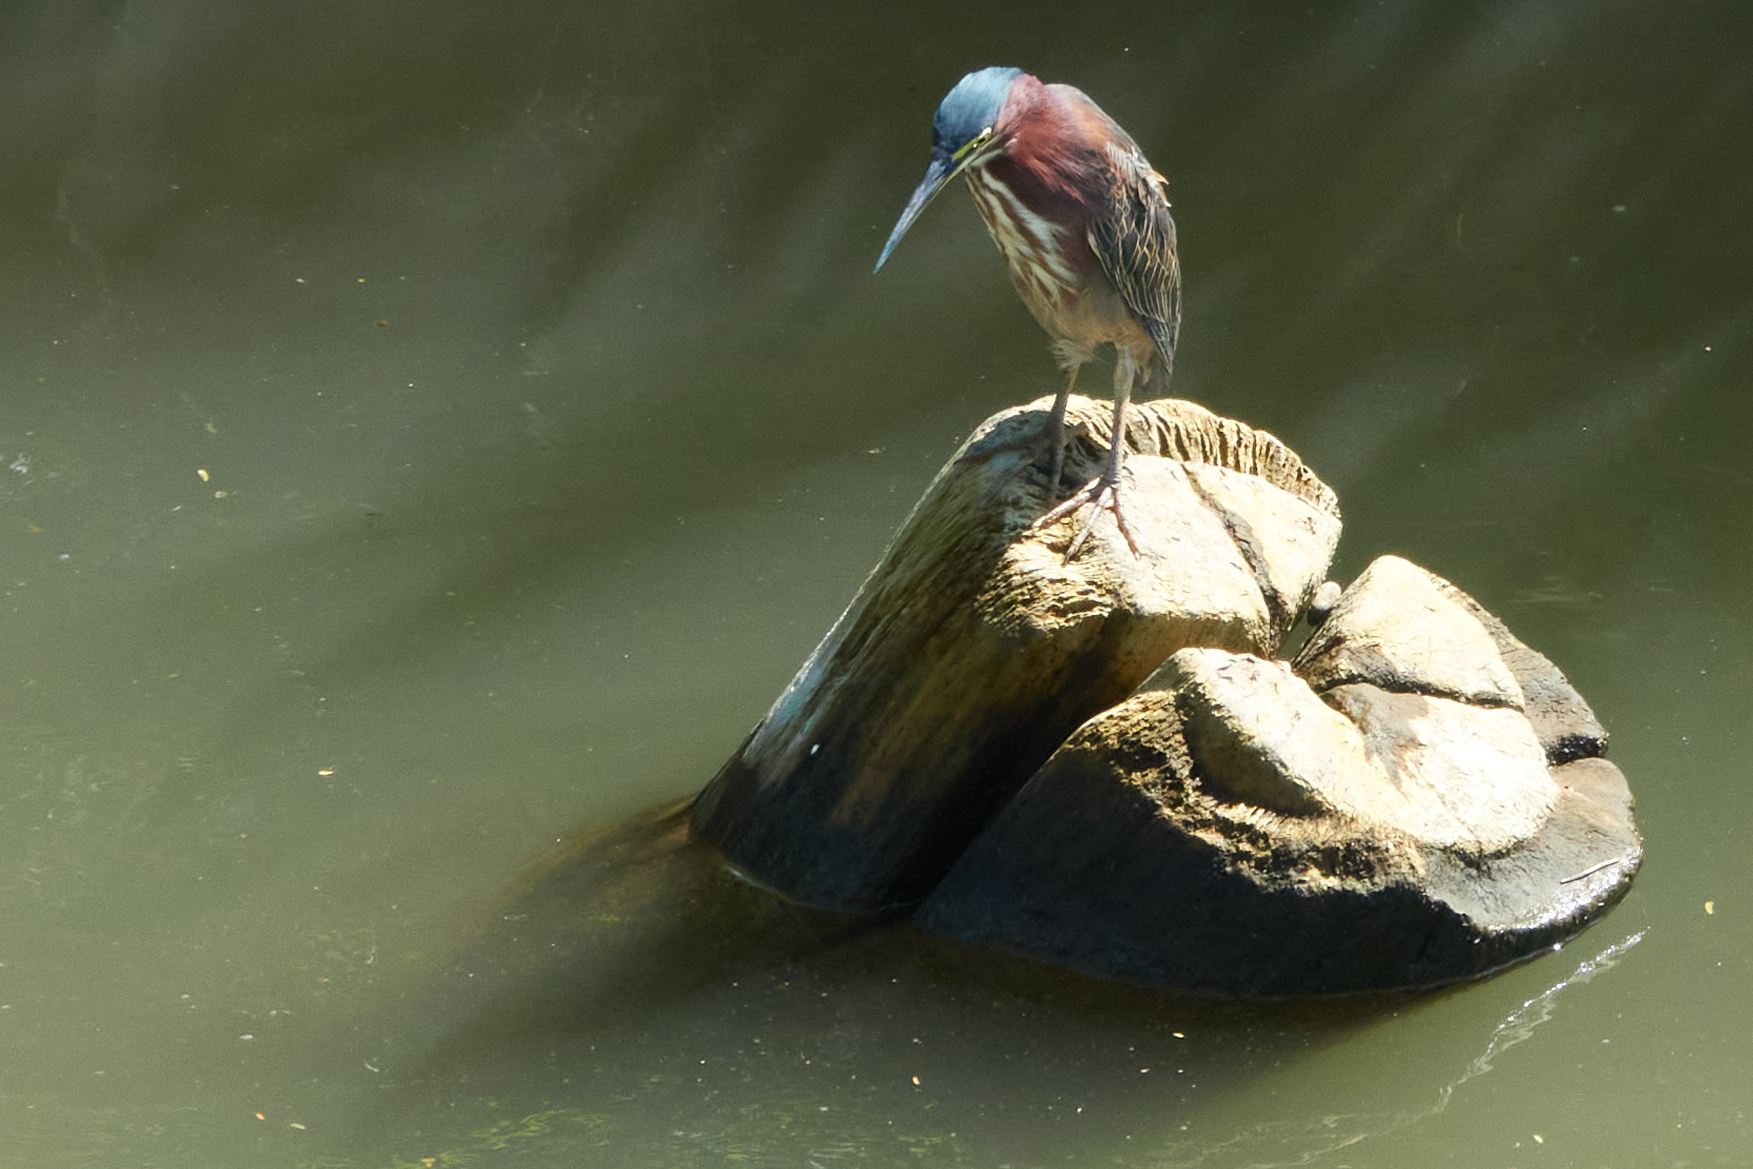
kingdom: Animalia
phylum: Chordata
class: Aves
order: Pelecaniformes
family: Ardeidae
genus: Butorides
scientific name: Butorides virescens
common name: Green heron
